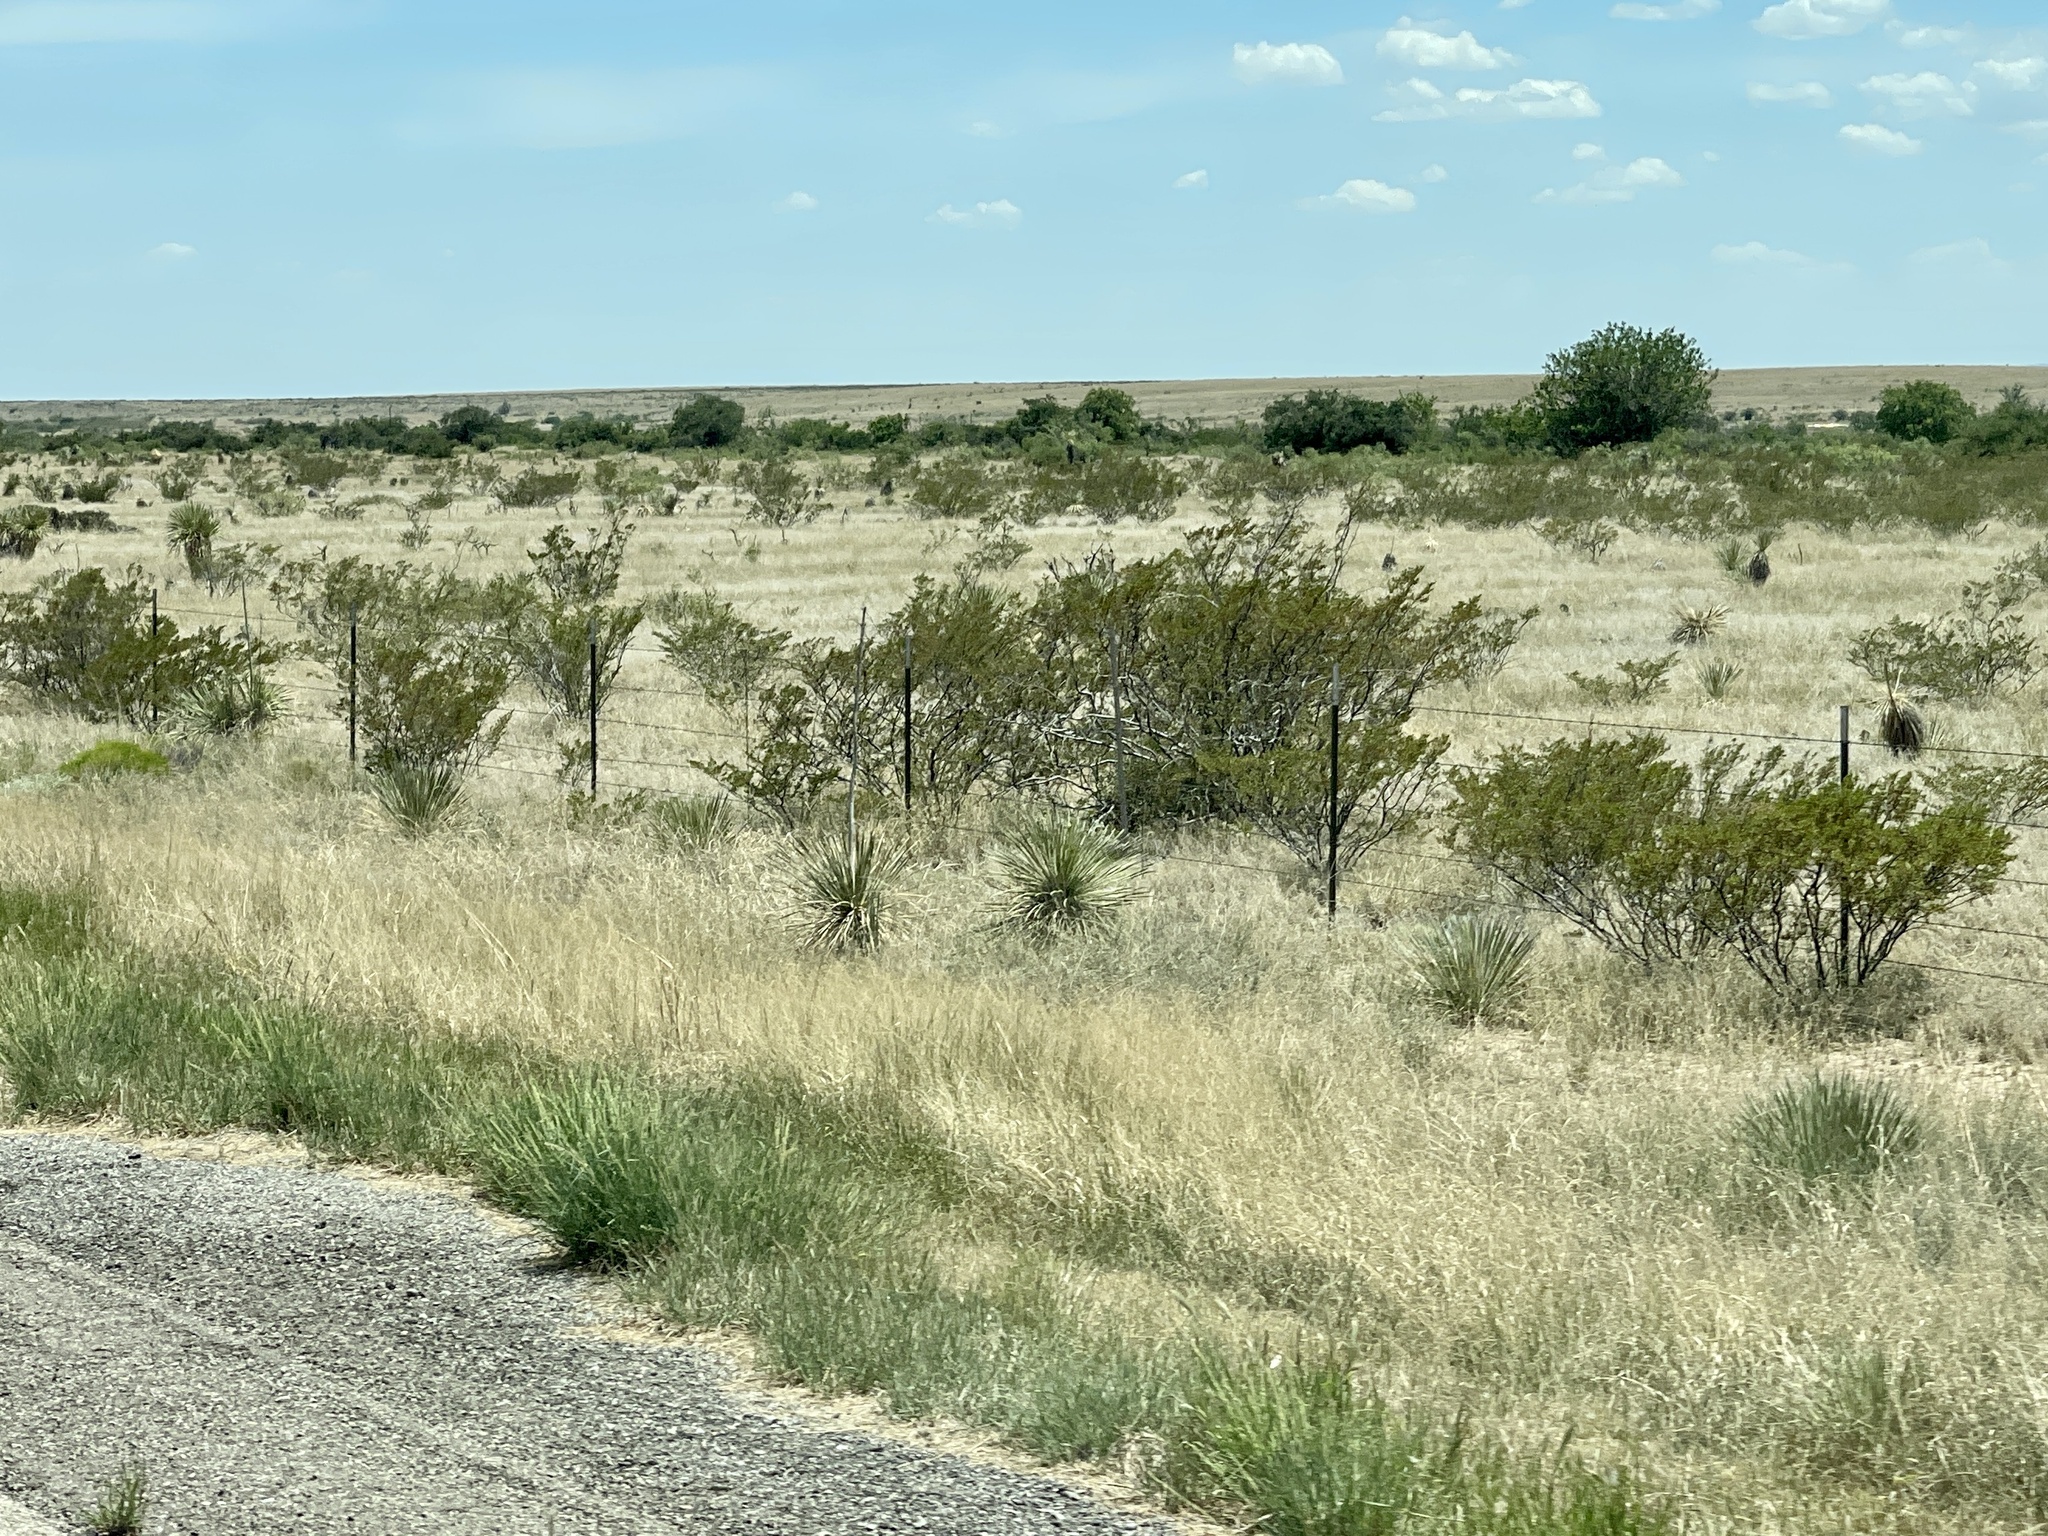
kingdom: Plantae
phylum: Tracheophyta
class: Magnoliopsida
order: Zygophyllales
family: Zygophyllaceae
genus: Larrea
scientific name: Larrea tridentata
